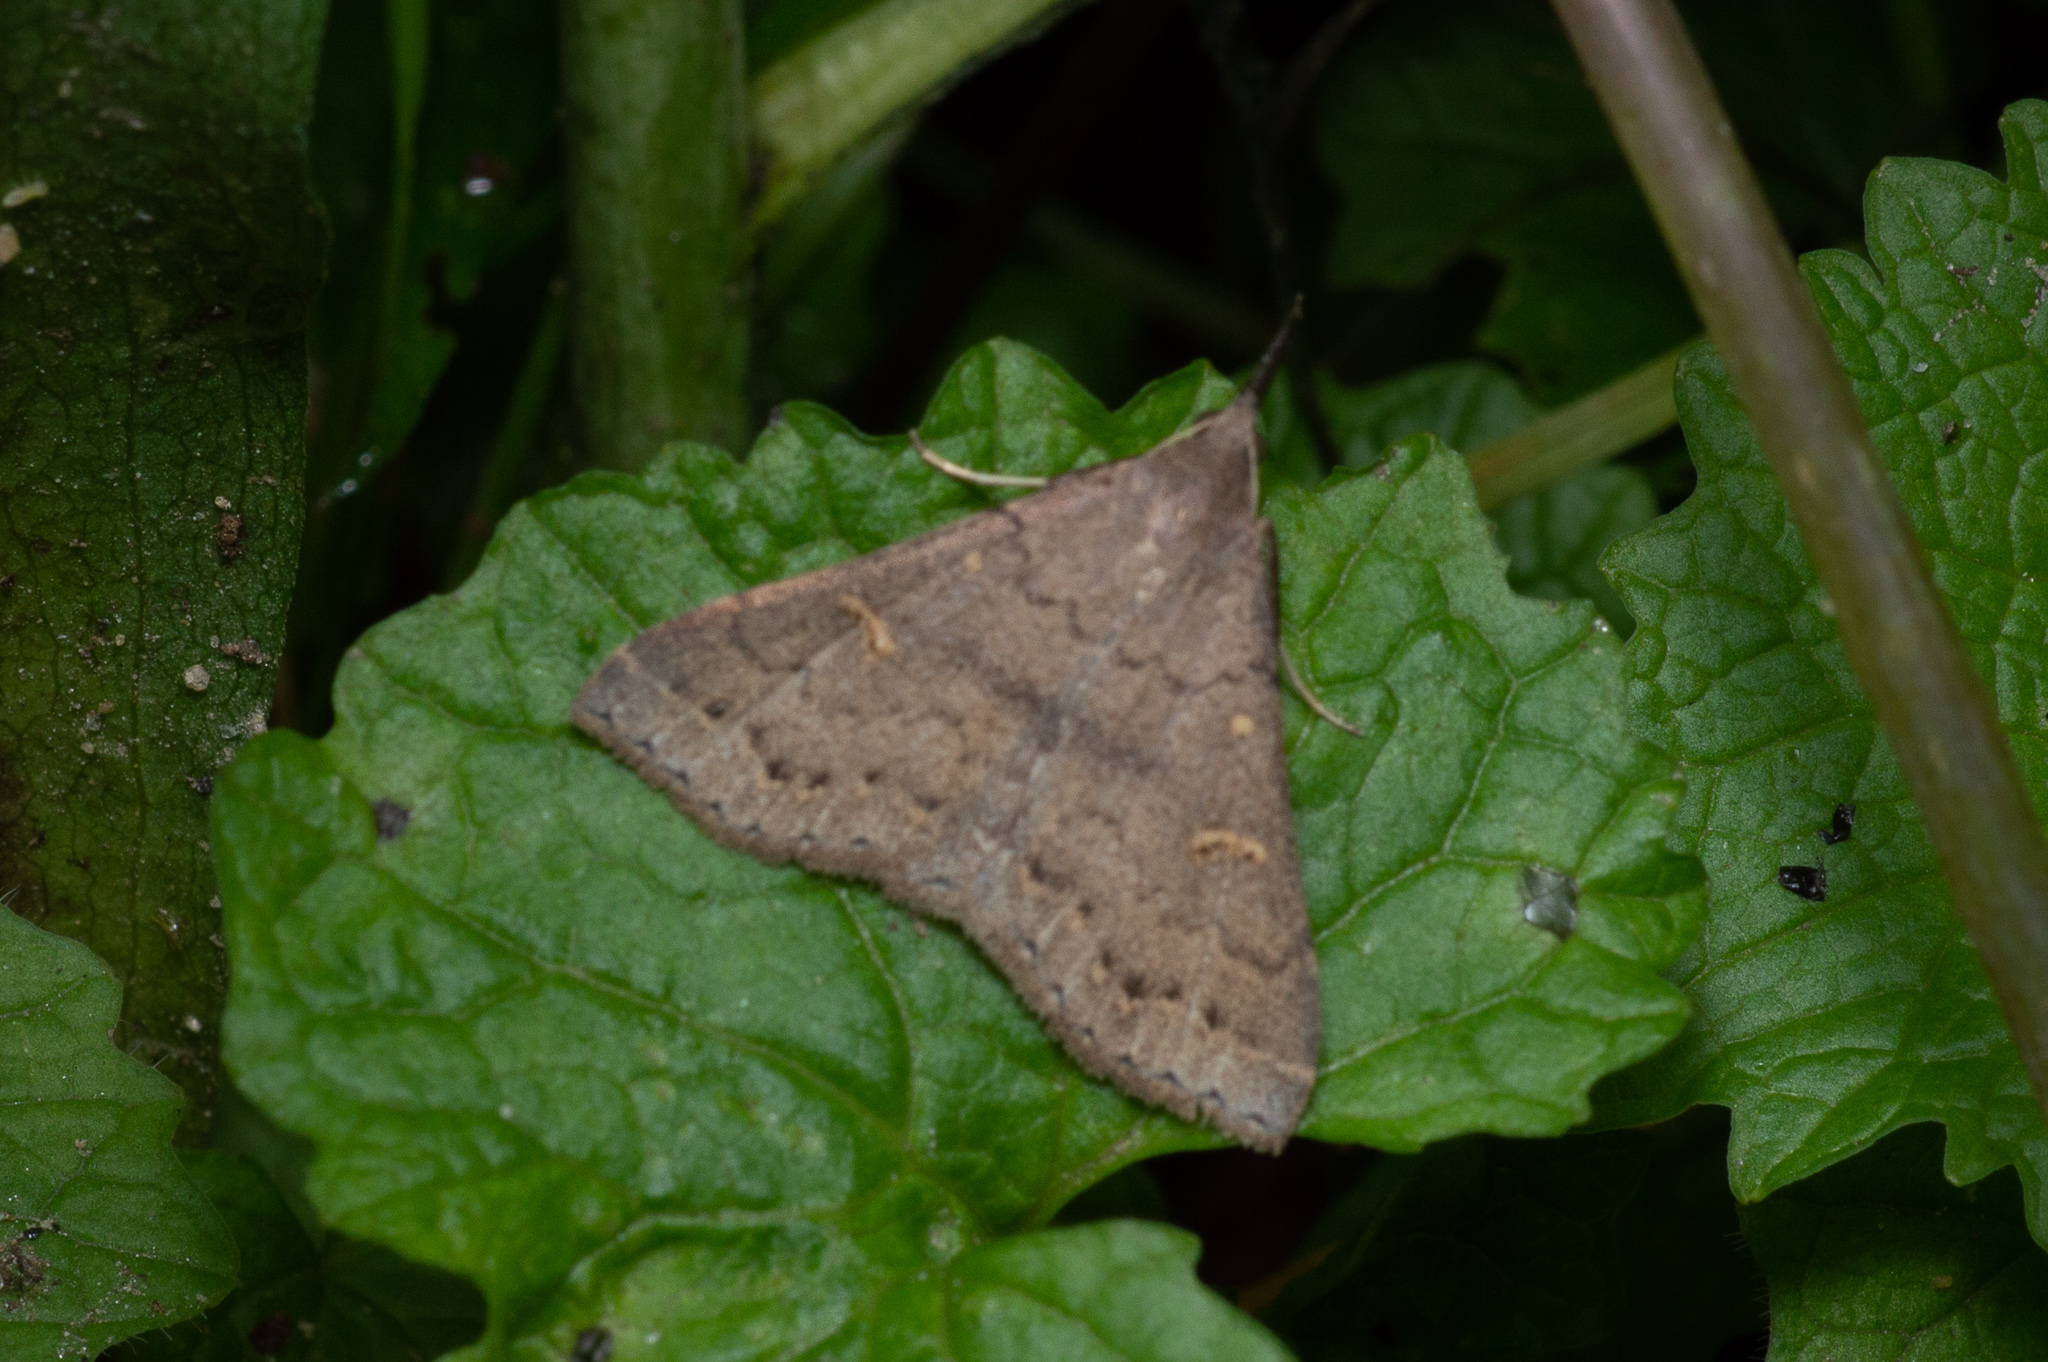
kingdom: Animalia
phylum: Arthropoda
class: Insecta
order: Lepidoptera
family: Erebidae
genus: Renia
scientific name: Renia adspergillus
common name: Speckled renia moth
